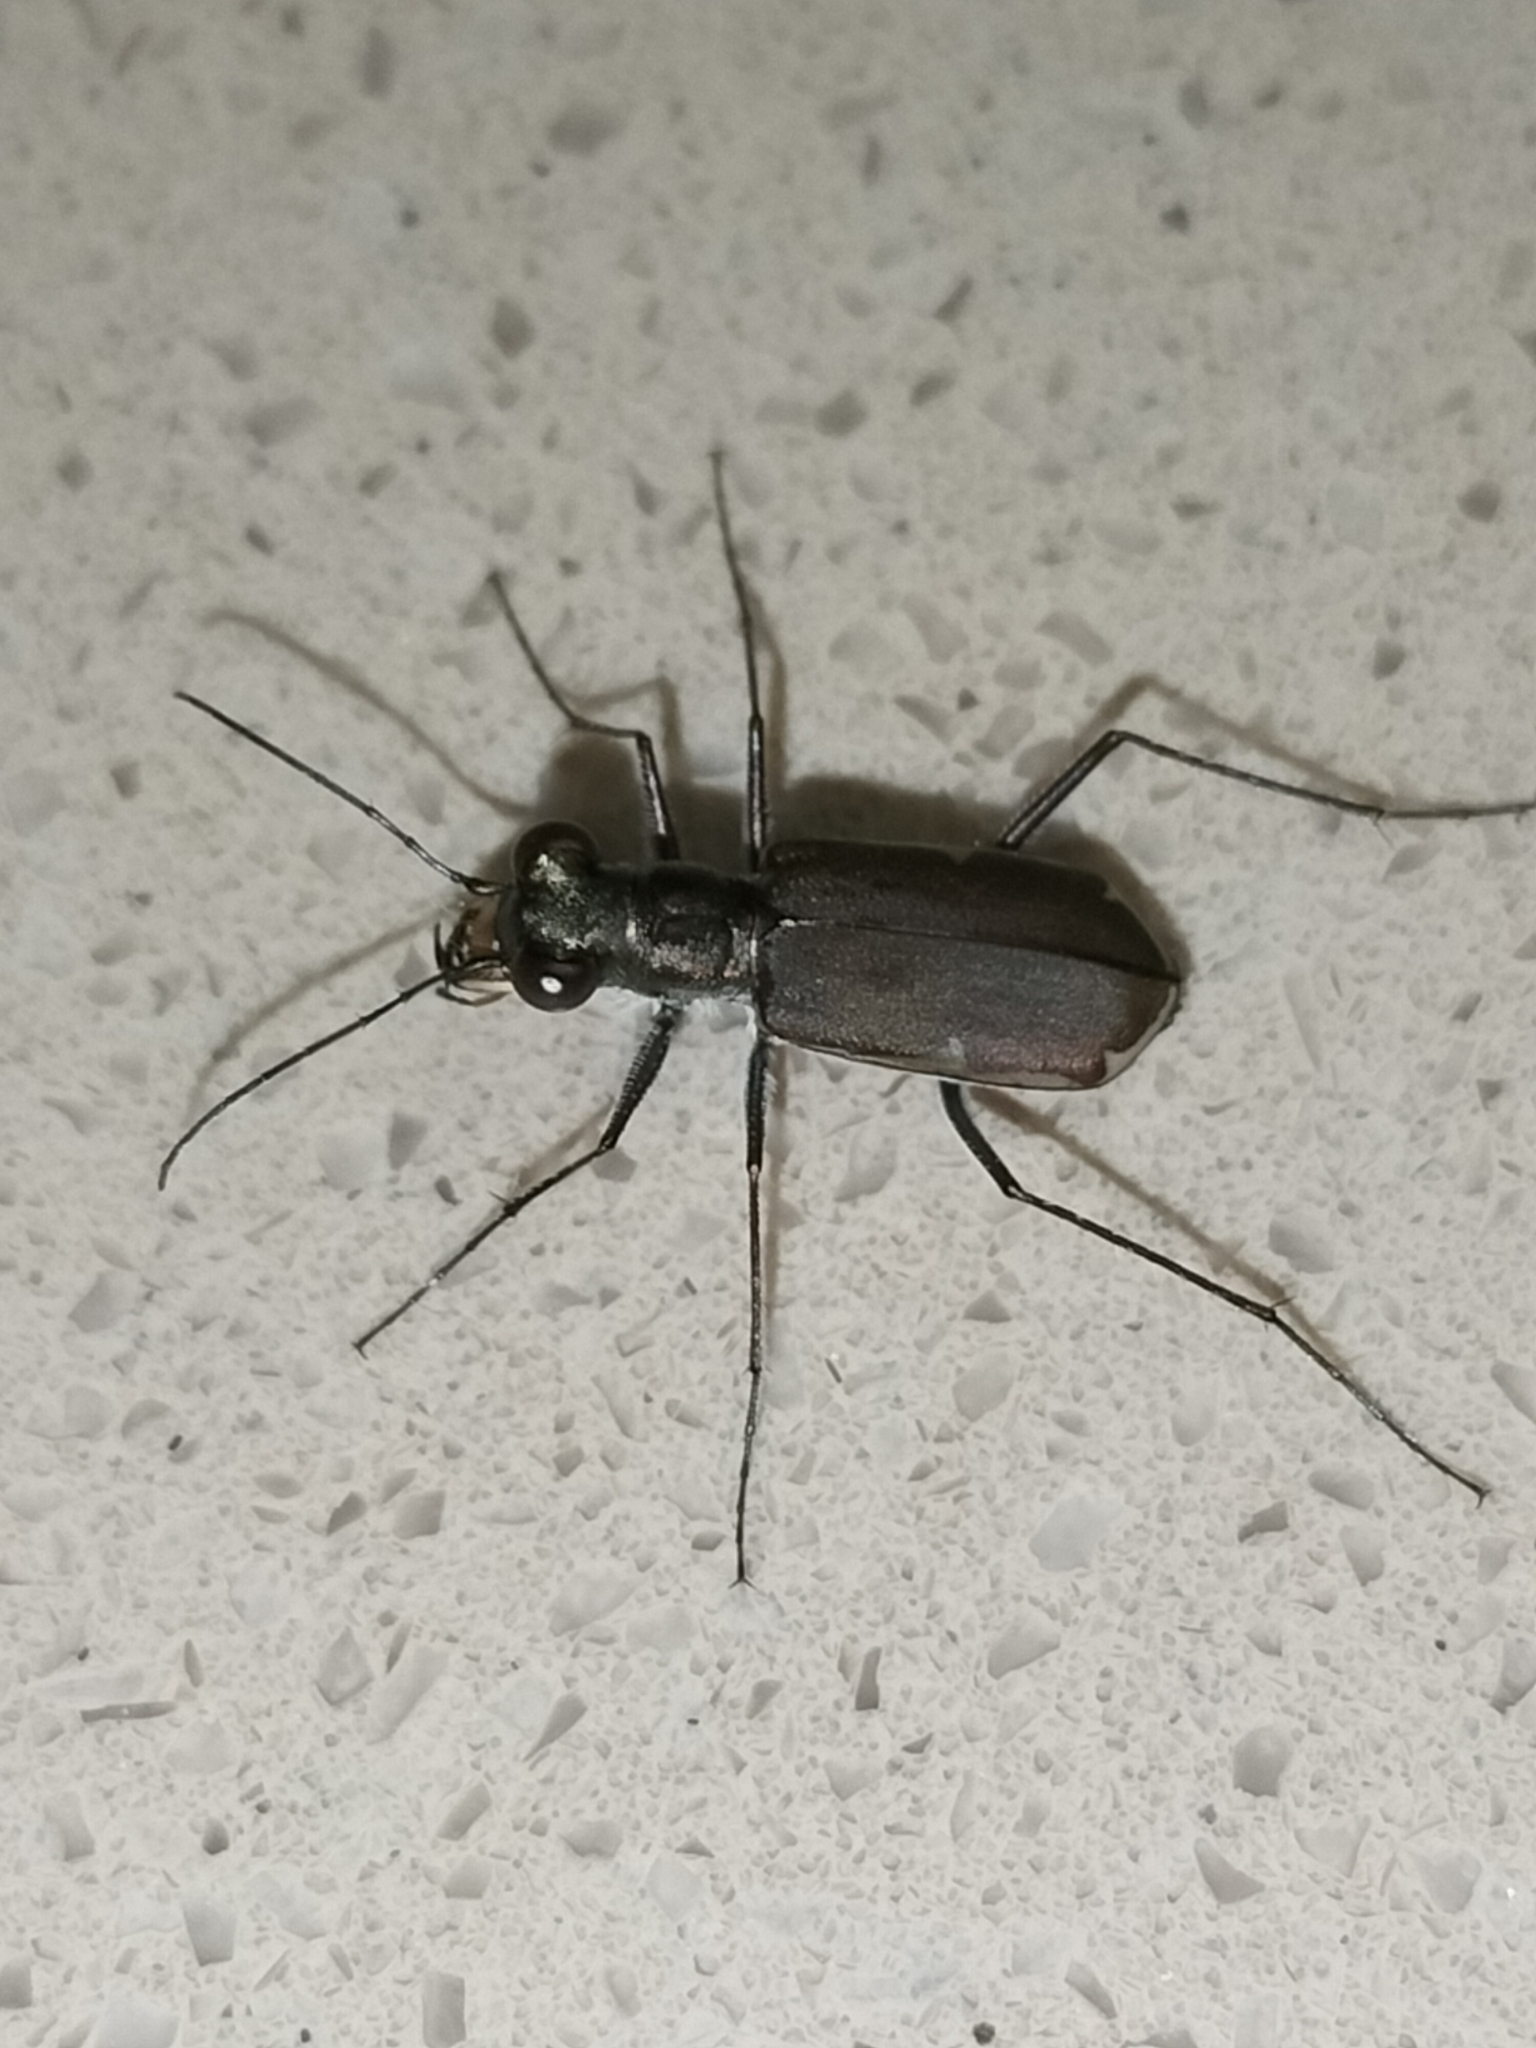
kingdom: Animalia
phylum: Arthropoda
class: Insecta
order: Coleoptera
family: Carabidae
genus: Myriochila
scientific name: Myriochila semicincta
